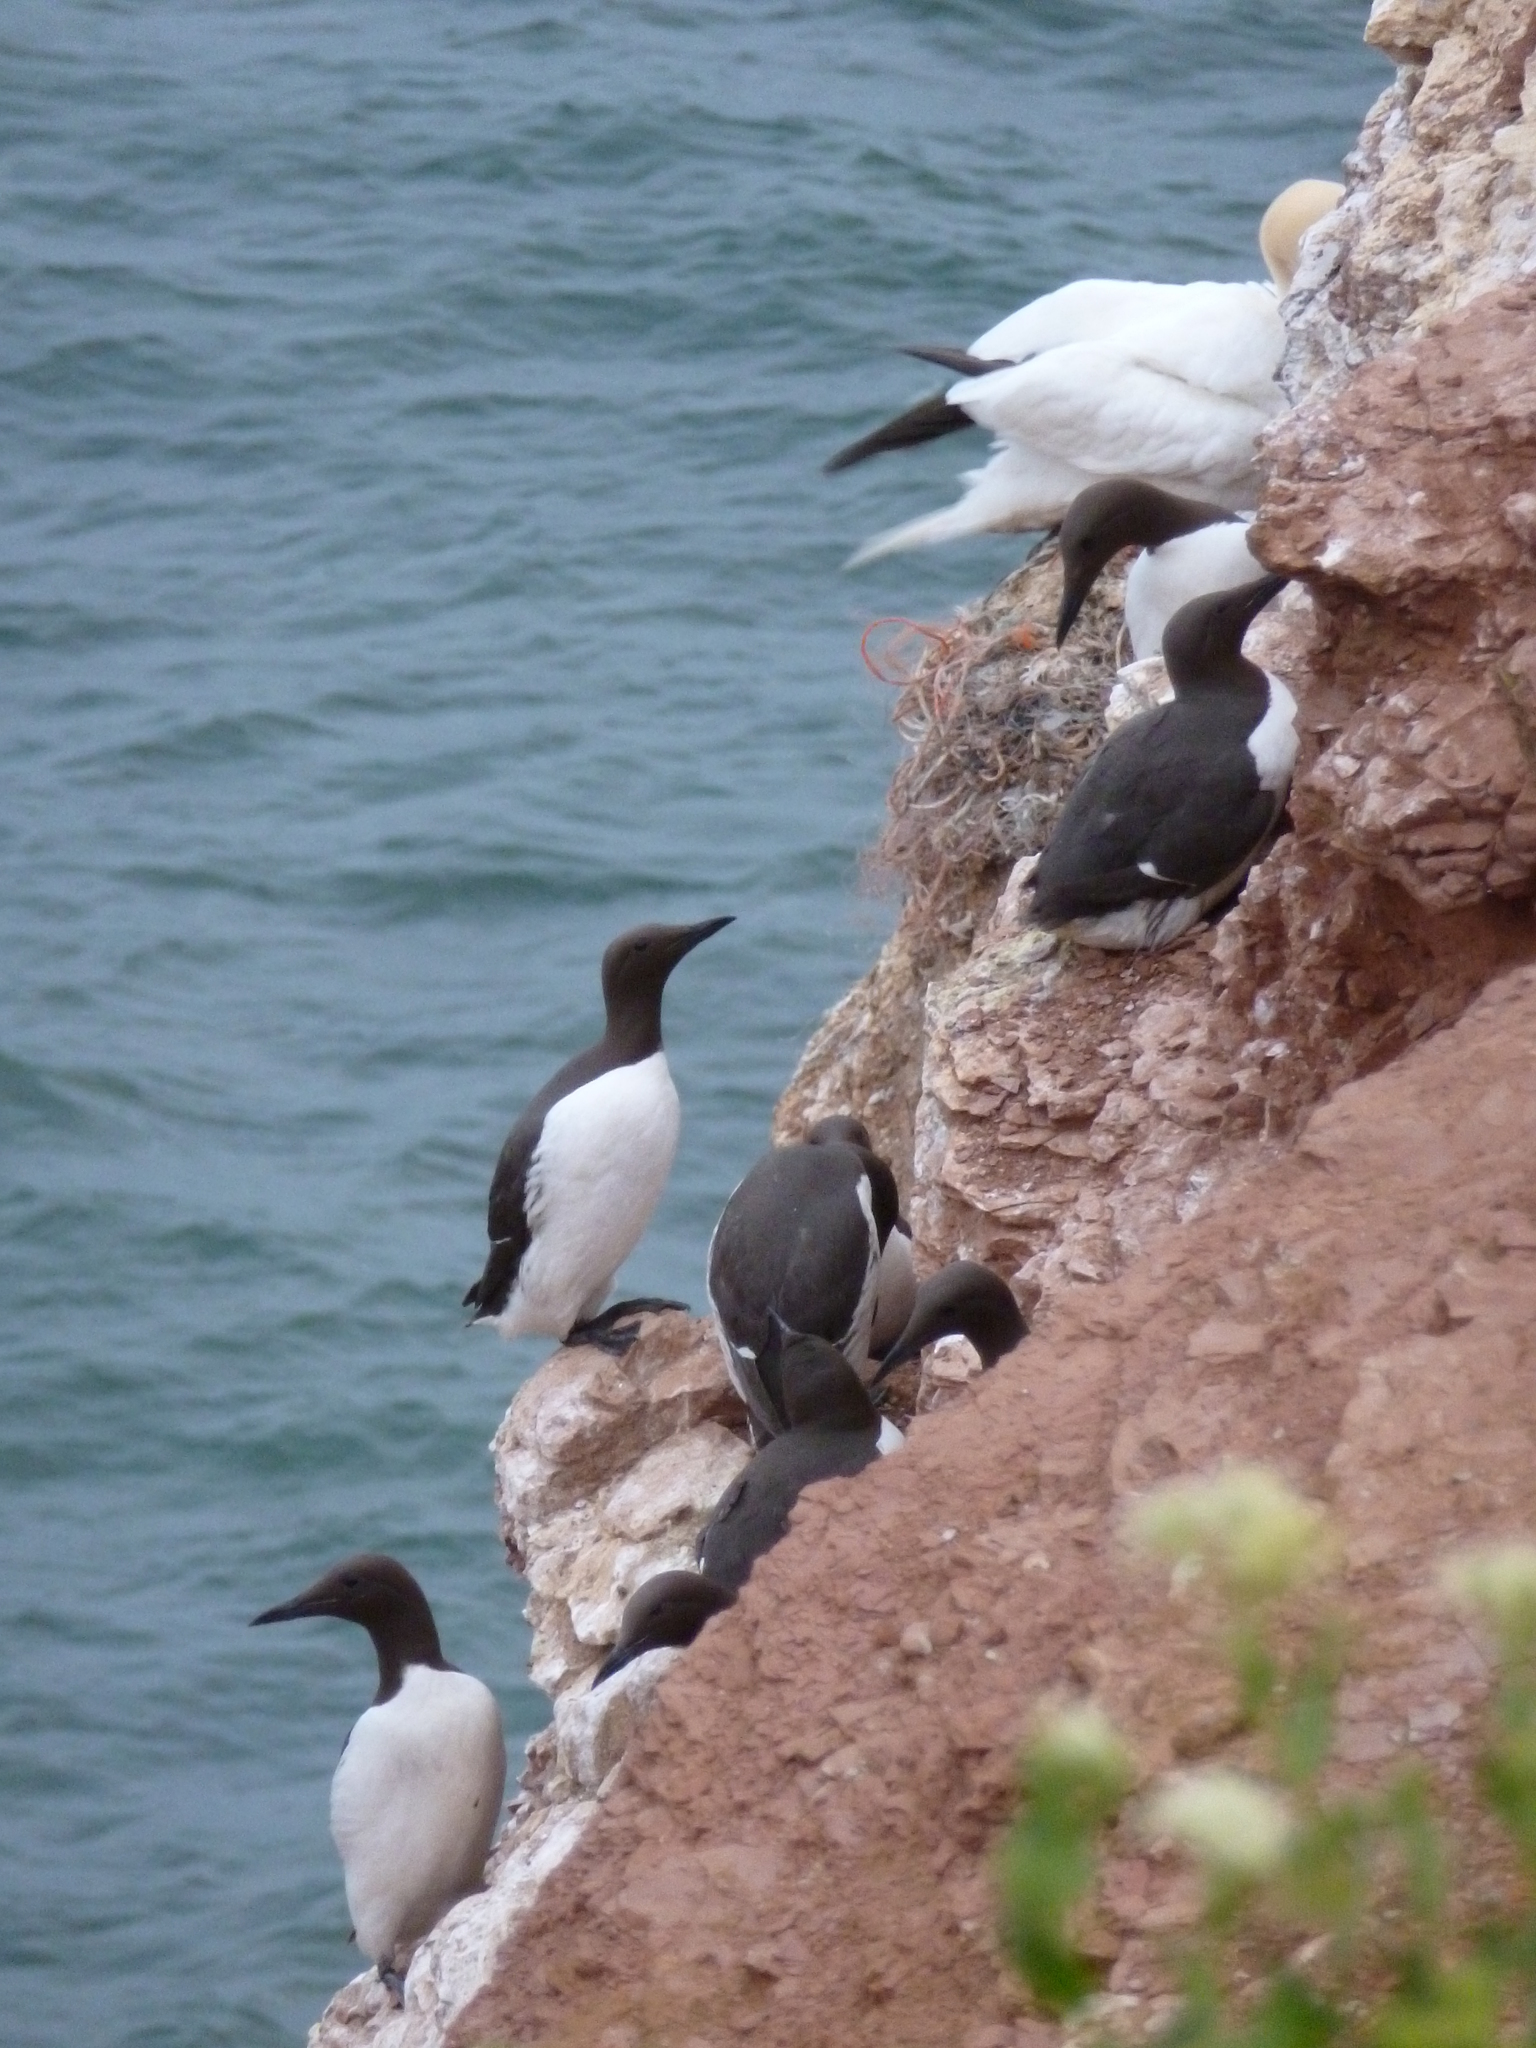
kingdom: Animalia
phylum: Chordata
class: Aves
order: Charadriiformes
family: Alcidae
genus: Uria
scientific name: Uria aalge
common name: Common murre
